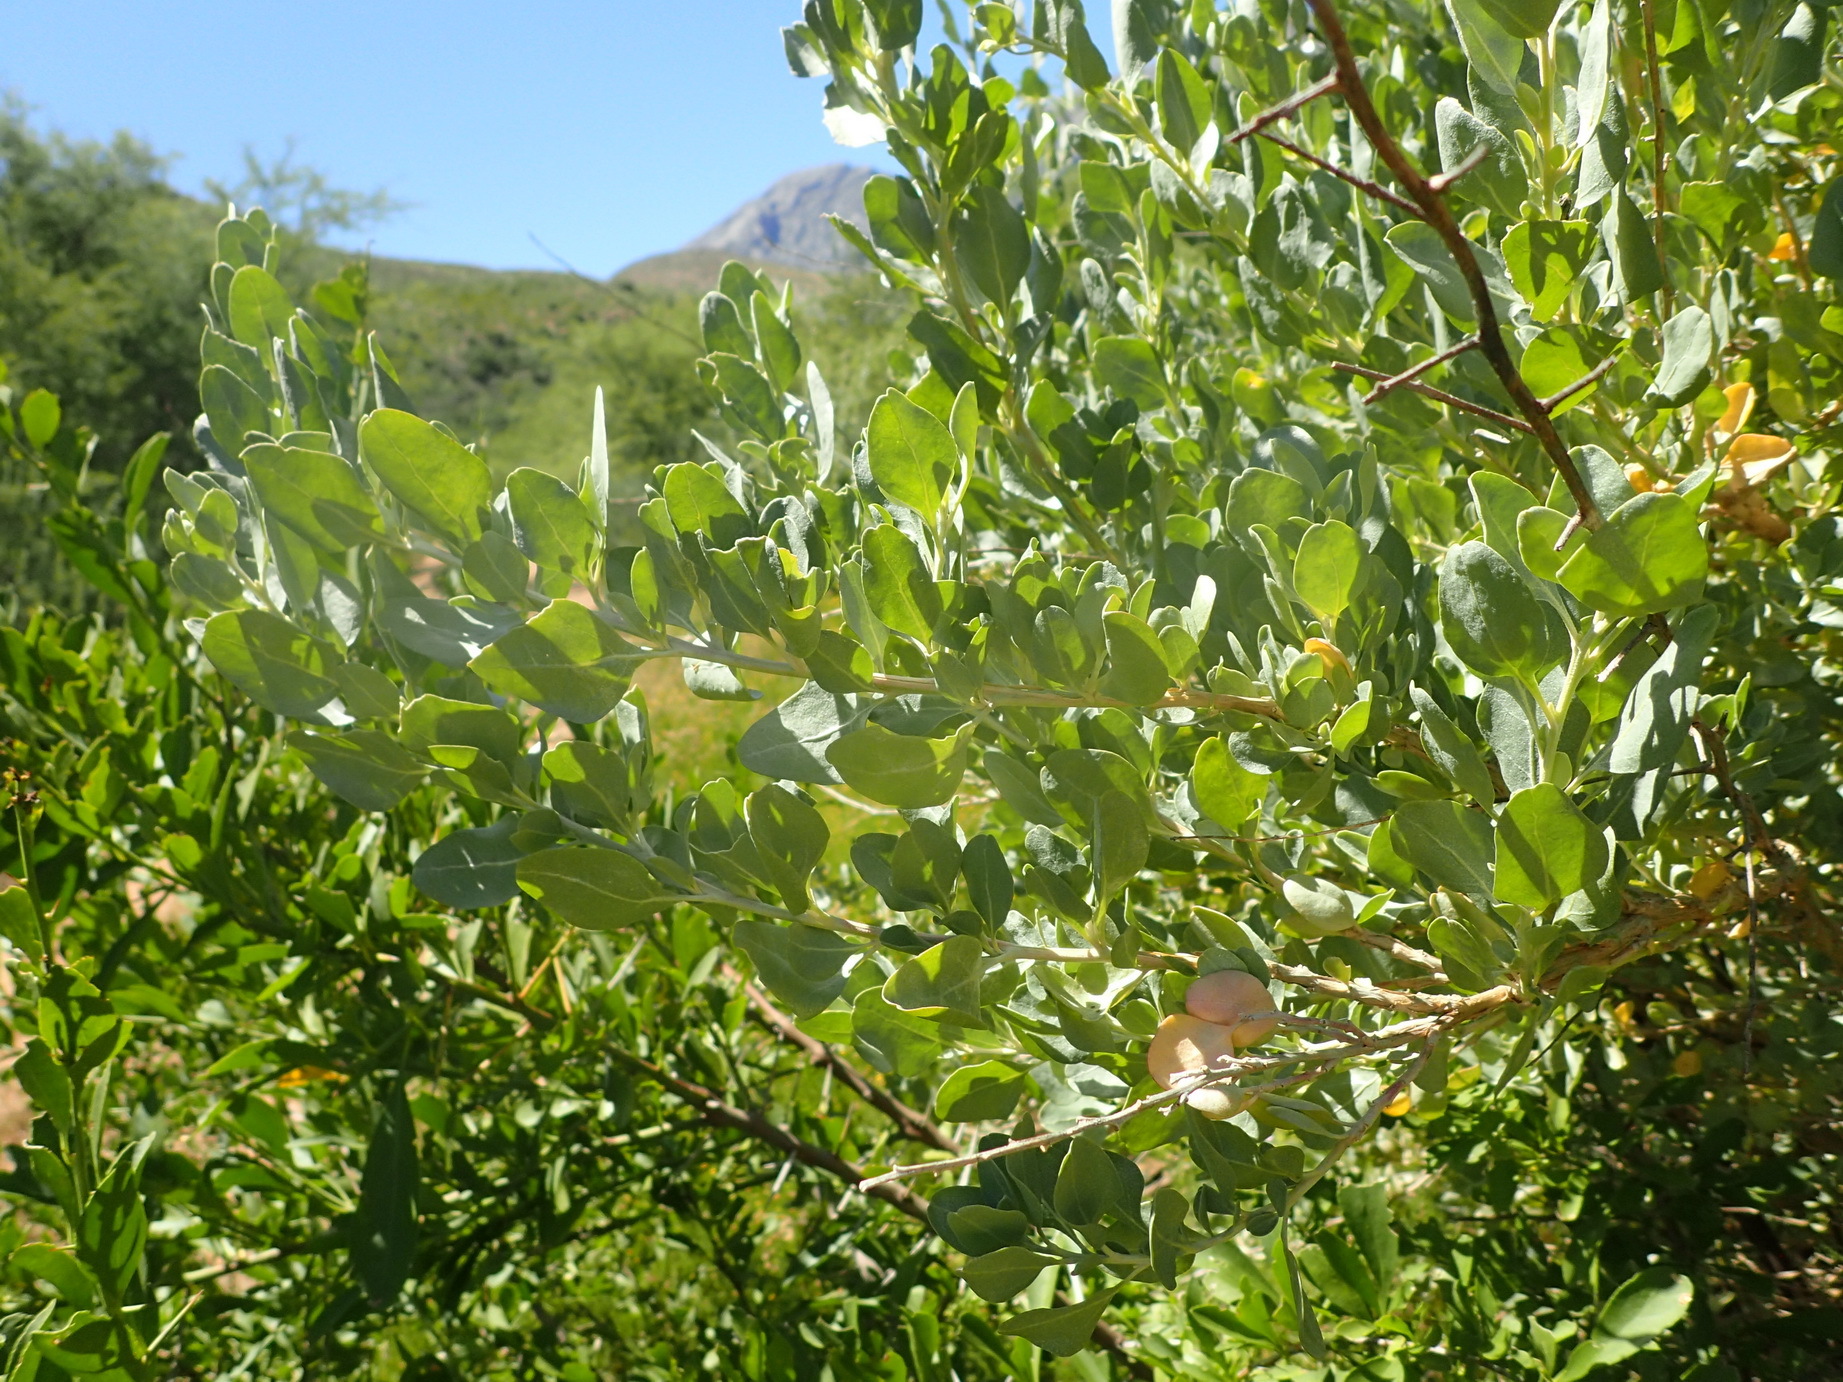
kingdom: Plantae
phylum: Tracheophyta
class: Magnoliopsida
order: Caryophyllales
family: Amaranthaceae
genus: Exomis
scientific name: Exomis albicans
